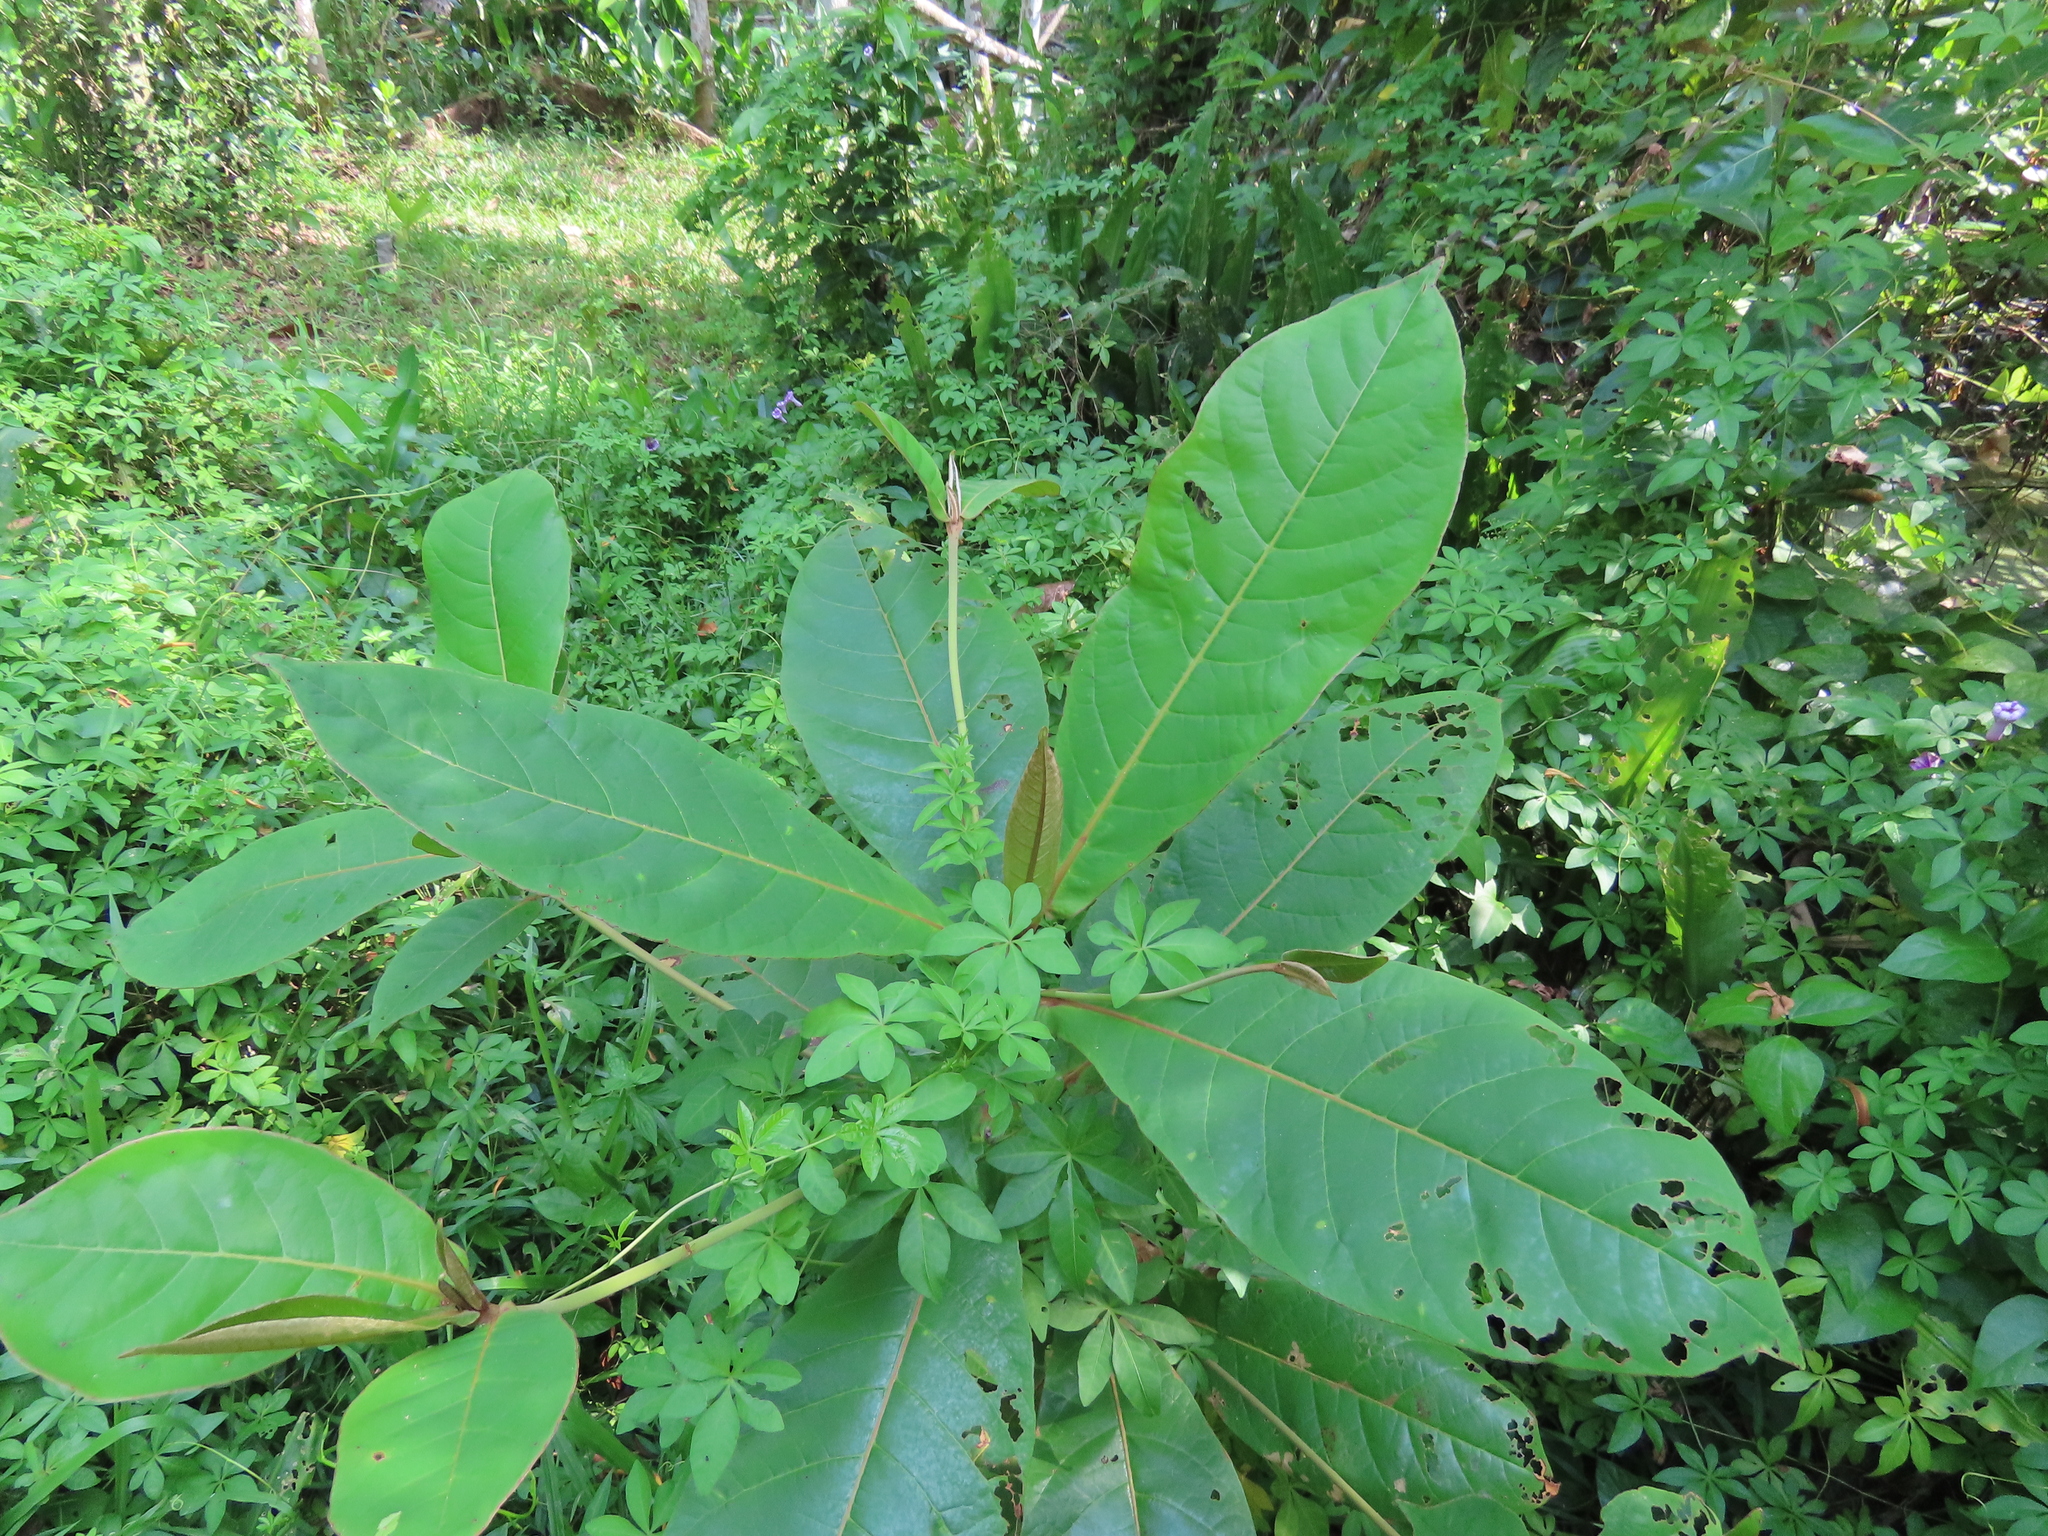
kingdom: Plantae
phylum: Tracheophyta
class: Magnoliopsida
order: Myrtales
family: Combretaceae
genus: Terminalia
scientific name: Terminalia catappa
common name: Tropical almond
